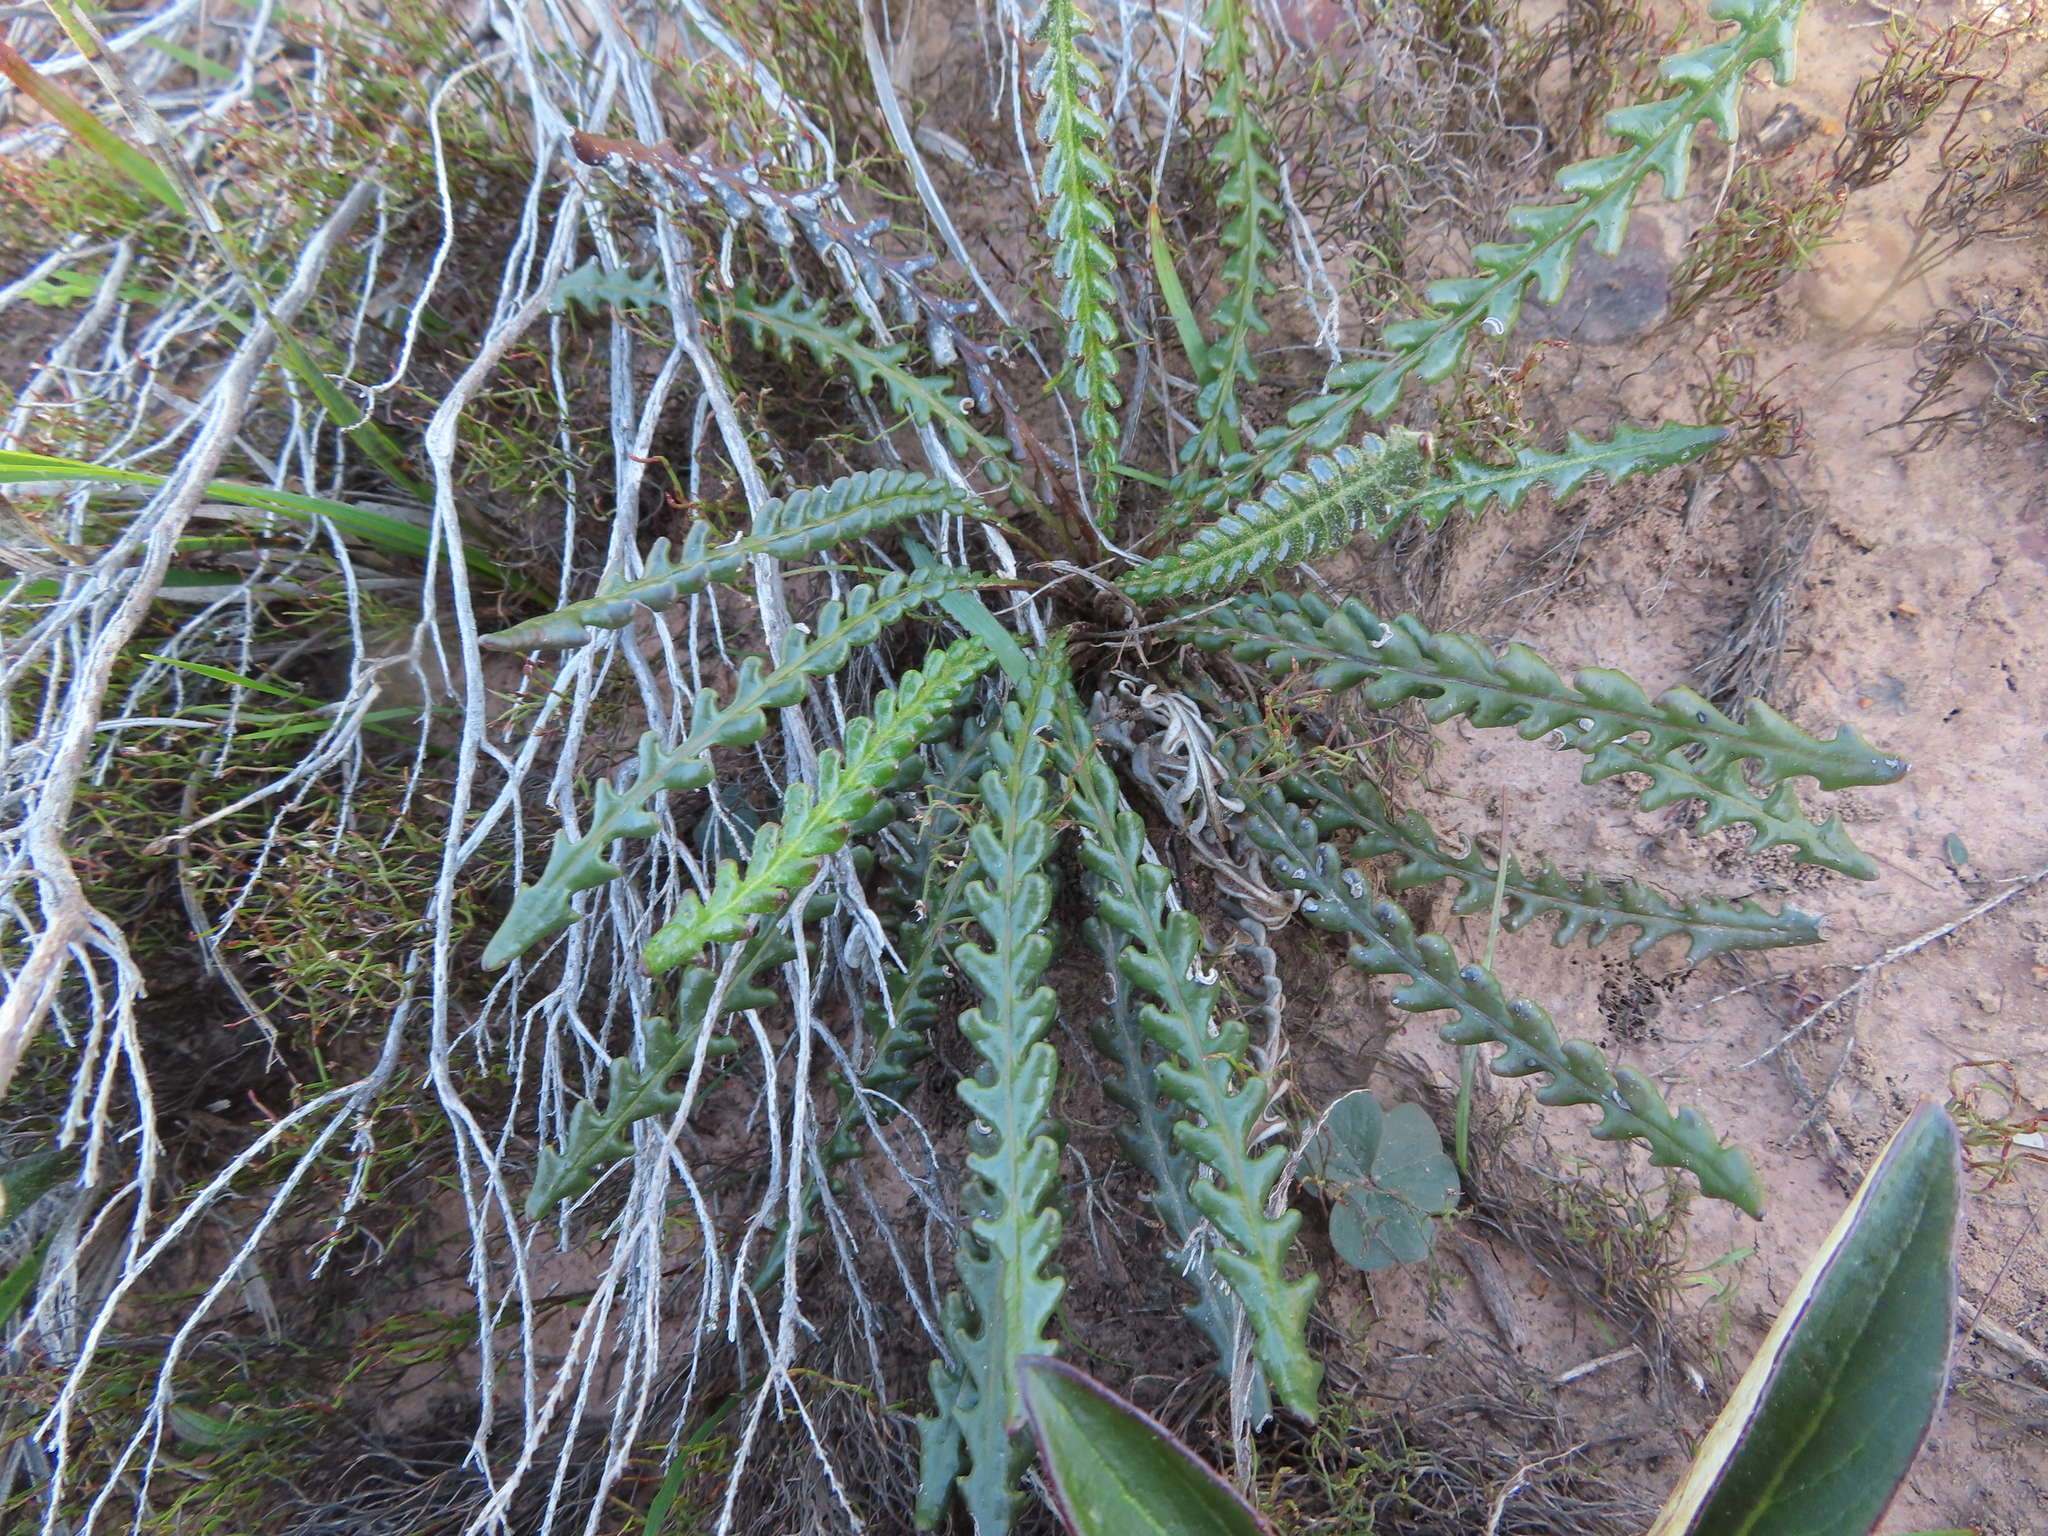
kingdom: Plantae
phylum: Tracheophyta
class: Magnoliopsida
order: Asterales
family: Asteraceae
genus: Gerbera
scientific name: Gerbera linnaei
